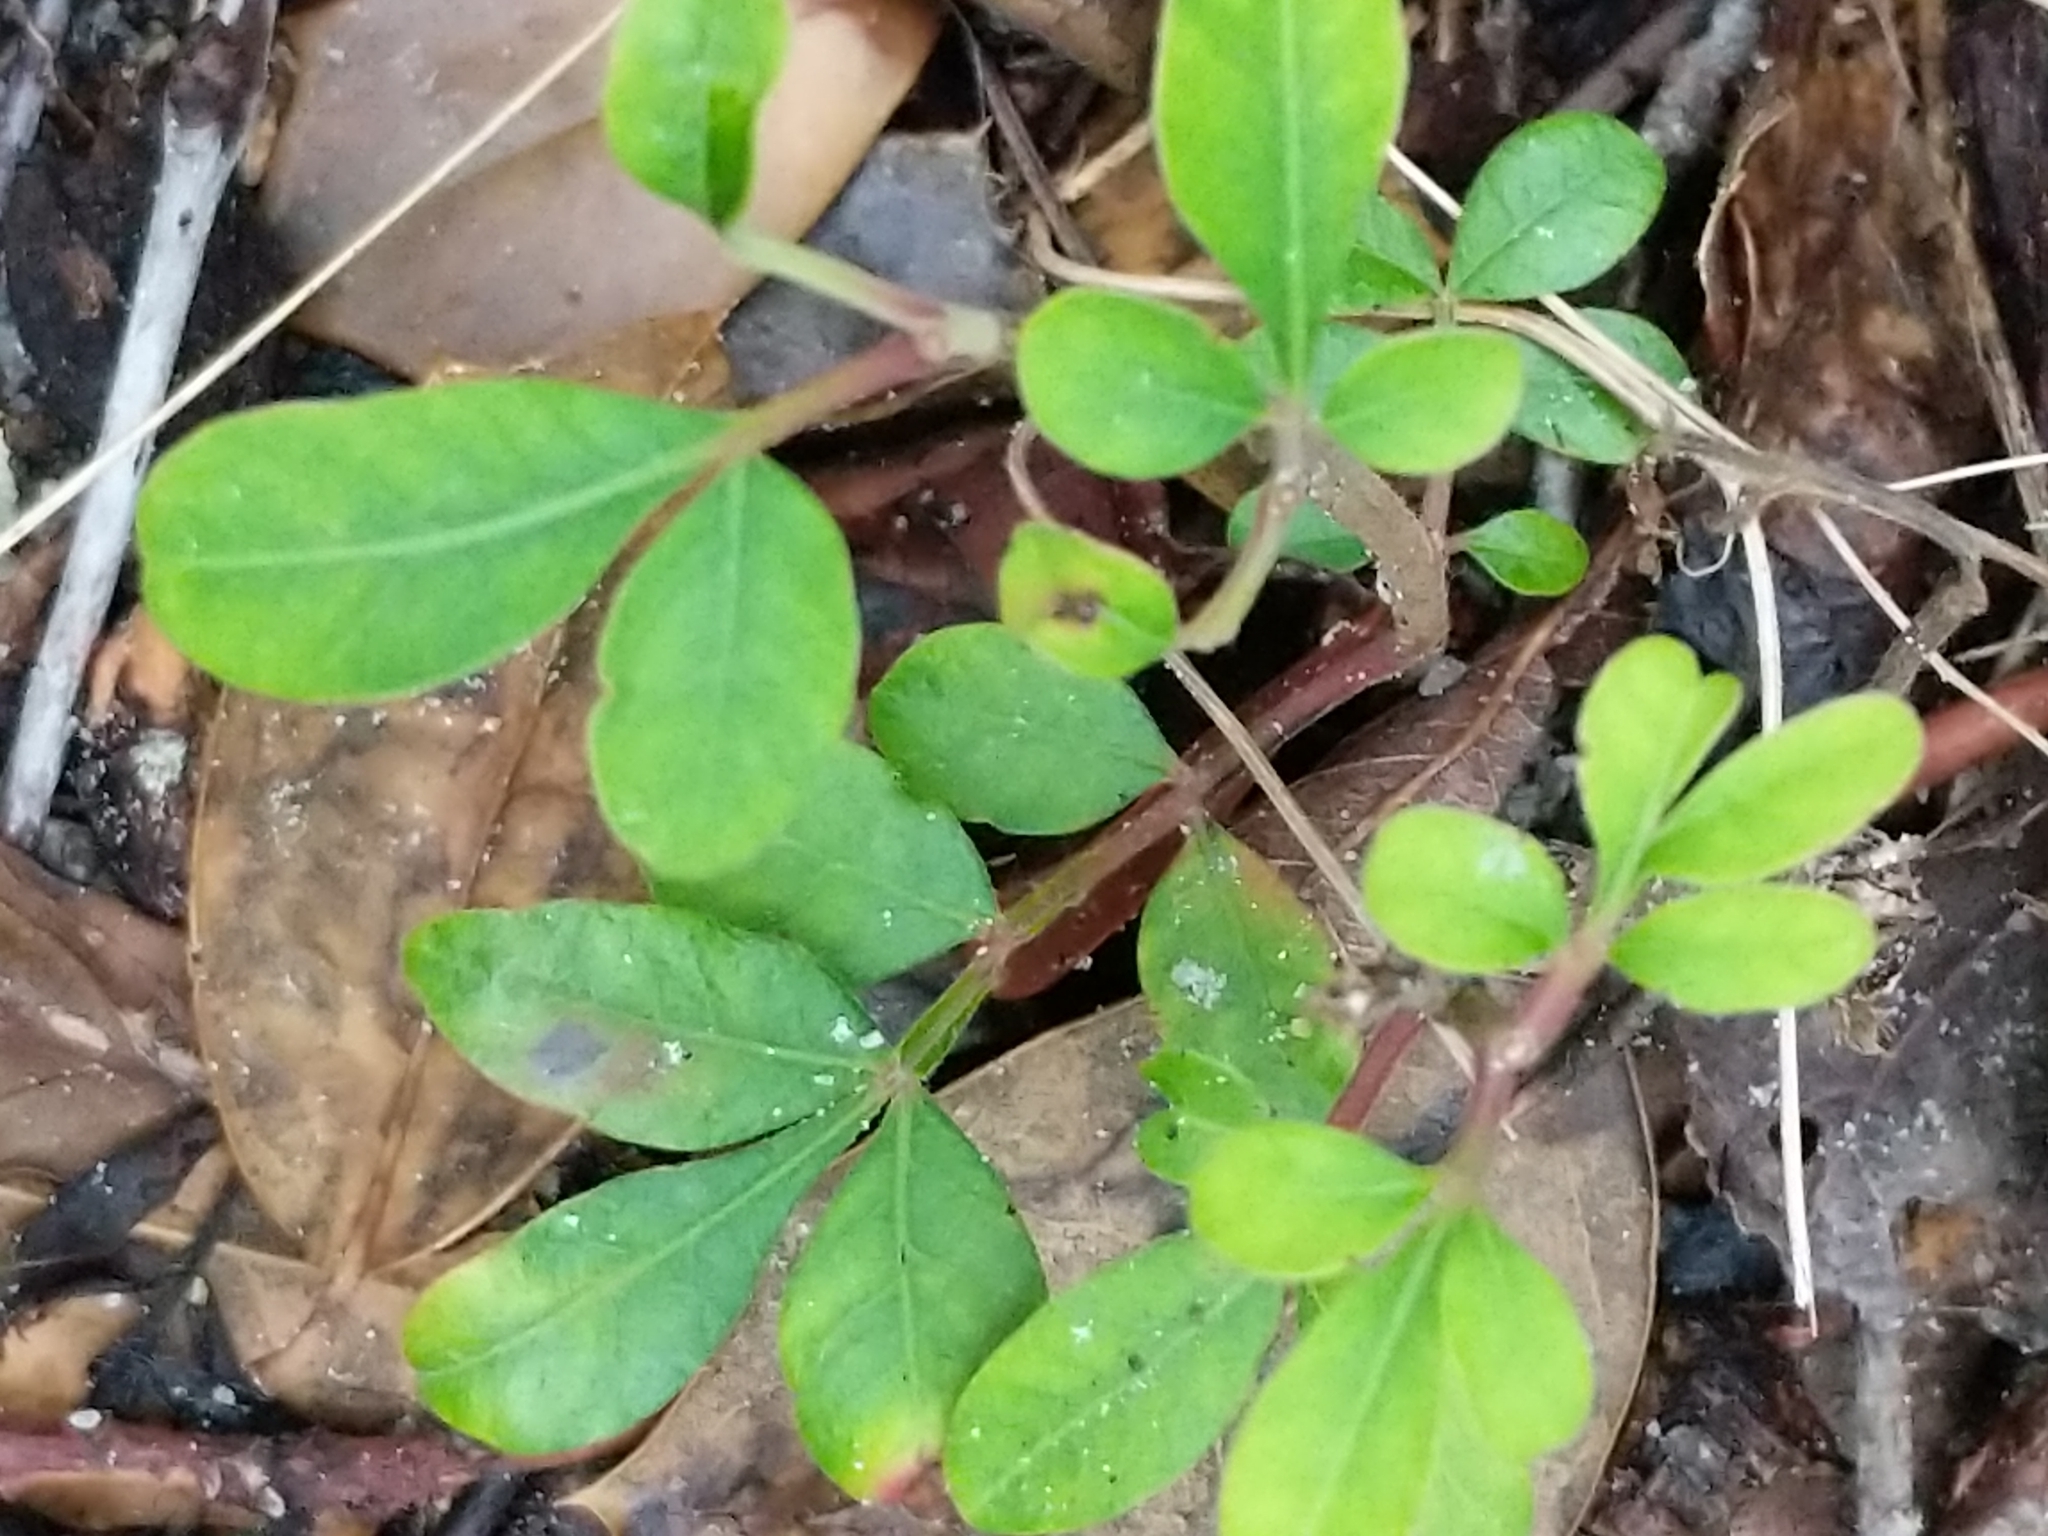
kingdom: Plantae
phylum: Tracheophyta
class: Magnoliopsida
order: Sapindales
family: Anacardiaceae
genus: Rhus
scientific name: Rhus copallina
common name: Shining sumac
